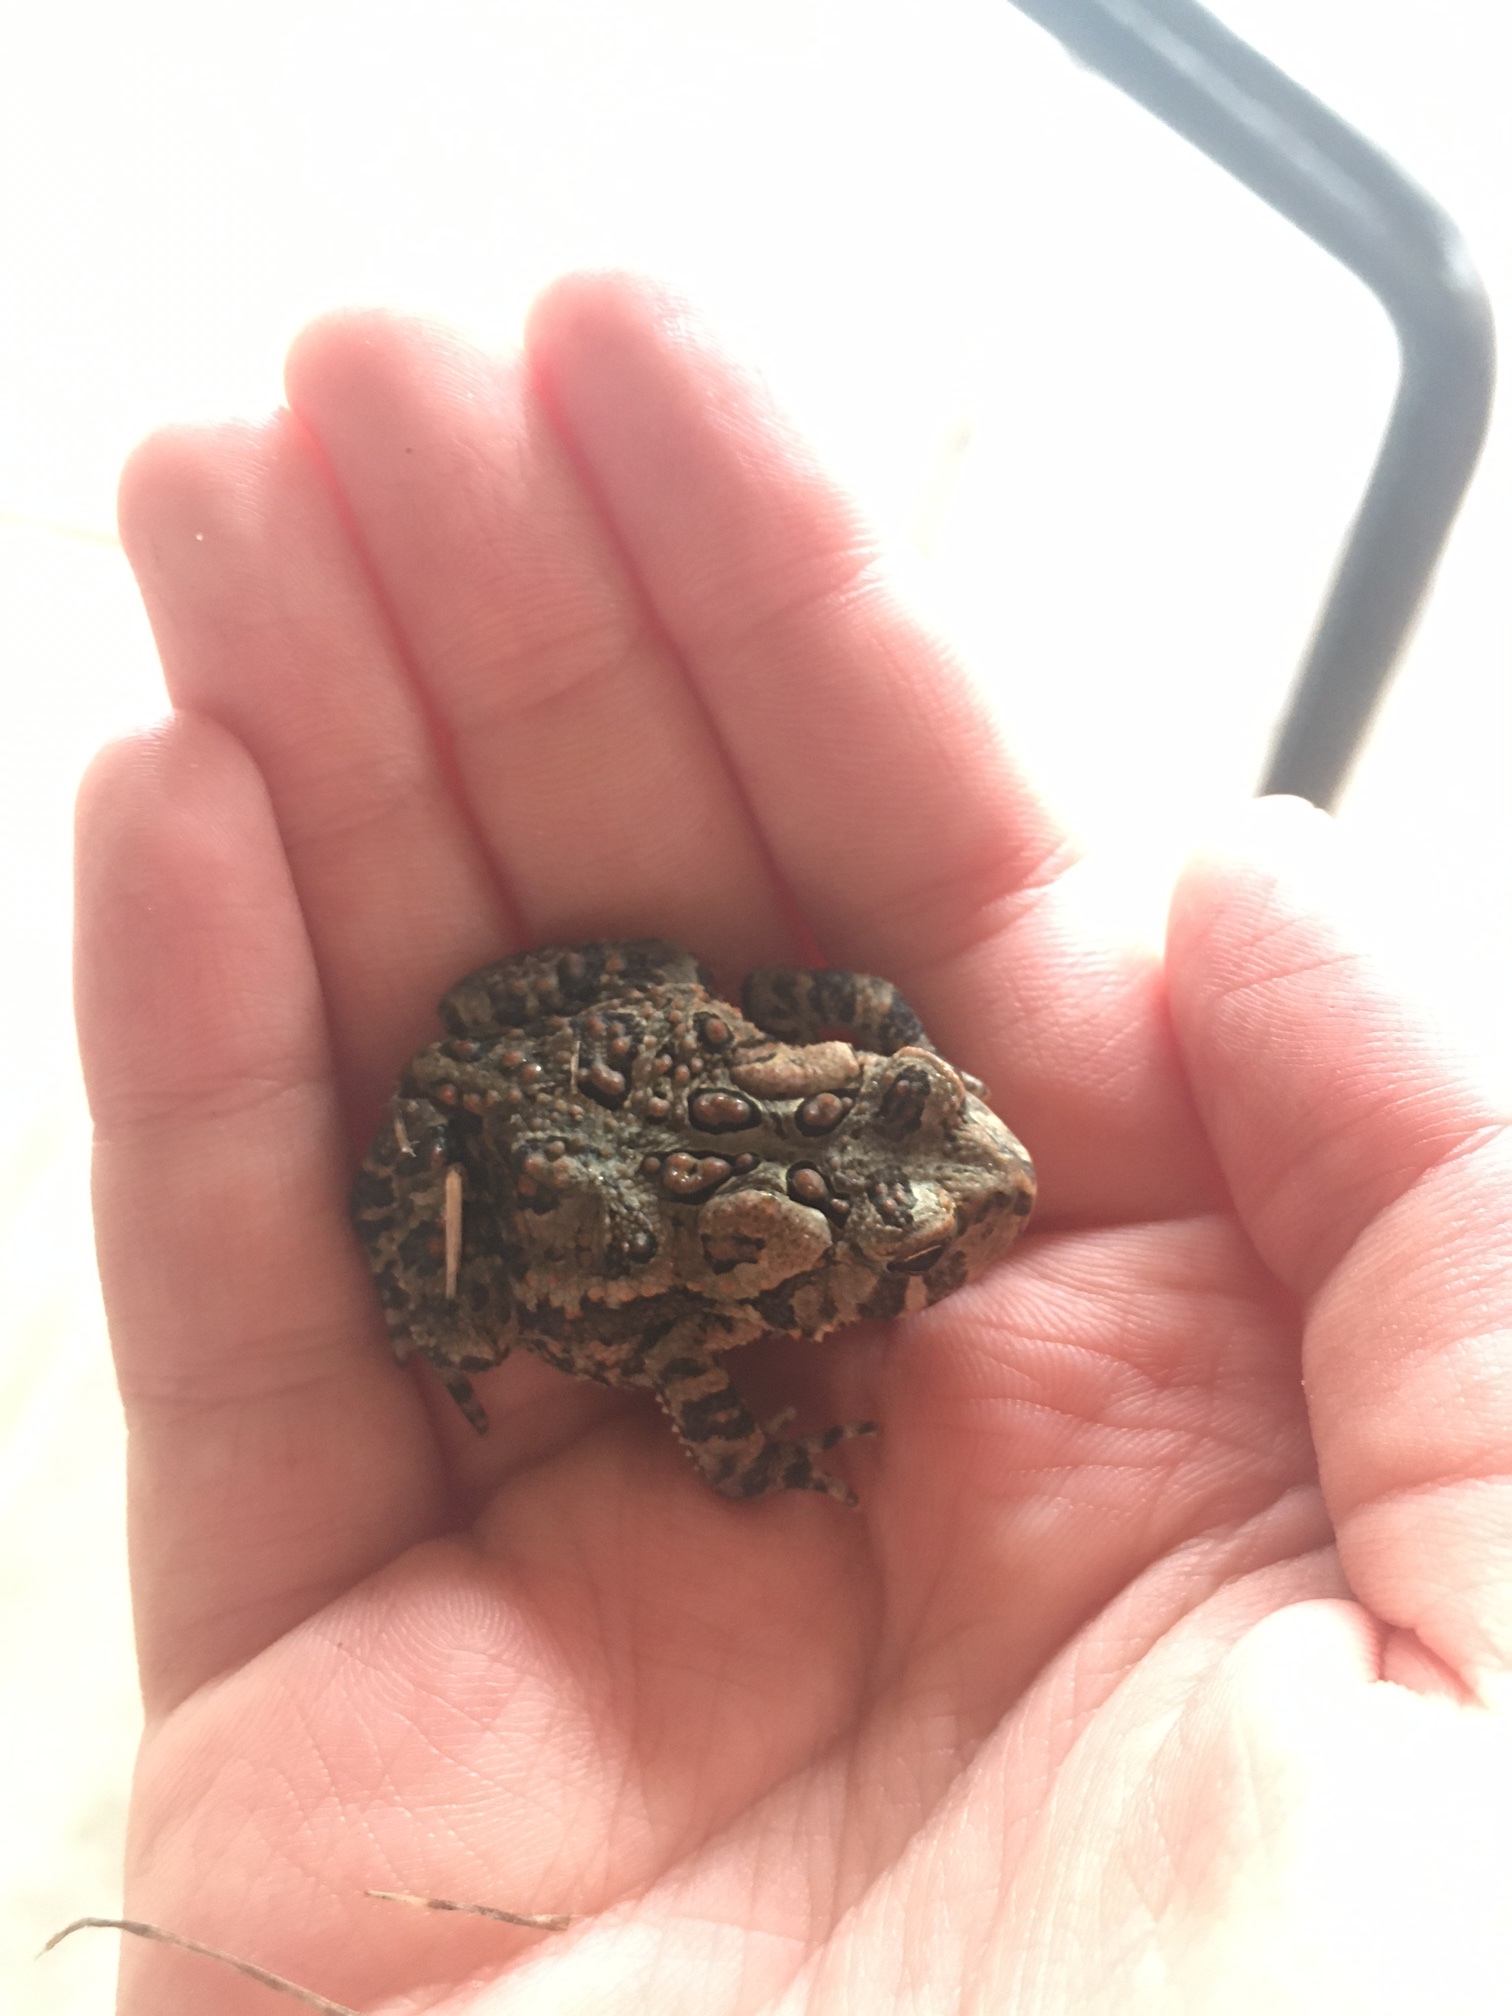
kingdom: Animalia
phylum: Chordata
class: Amphibia
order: Anura
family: Bufonidae
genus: Anaxyrus
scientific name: Anaxyrus americanus
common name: American toad
